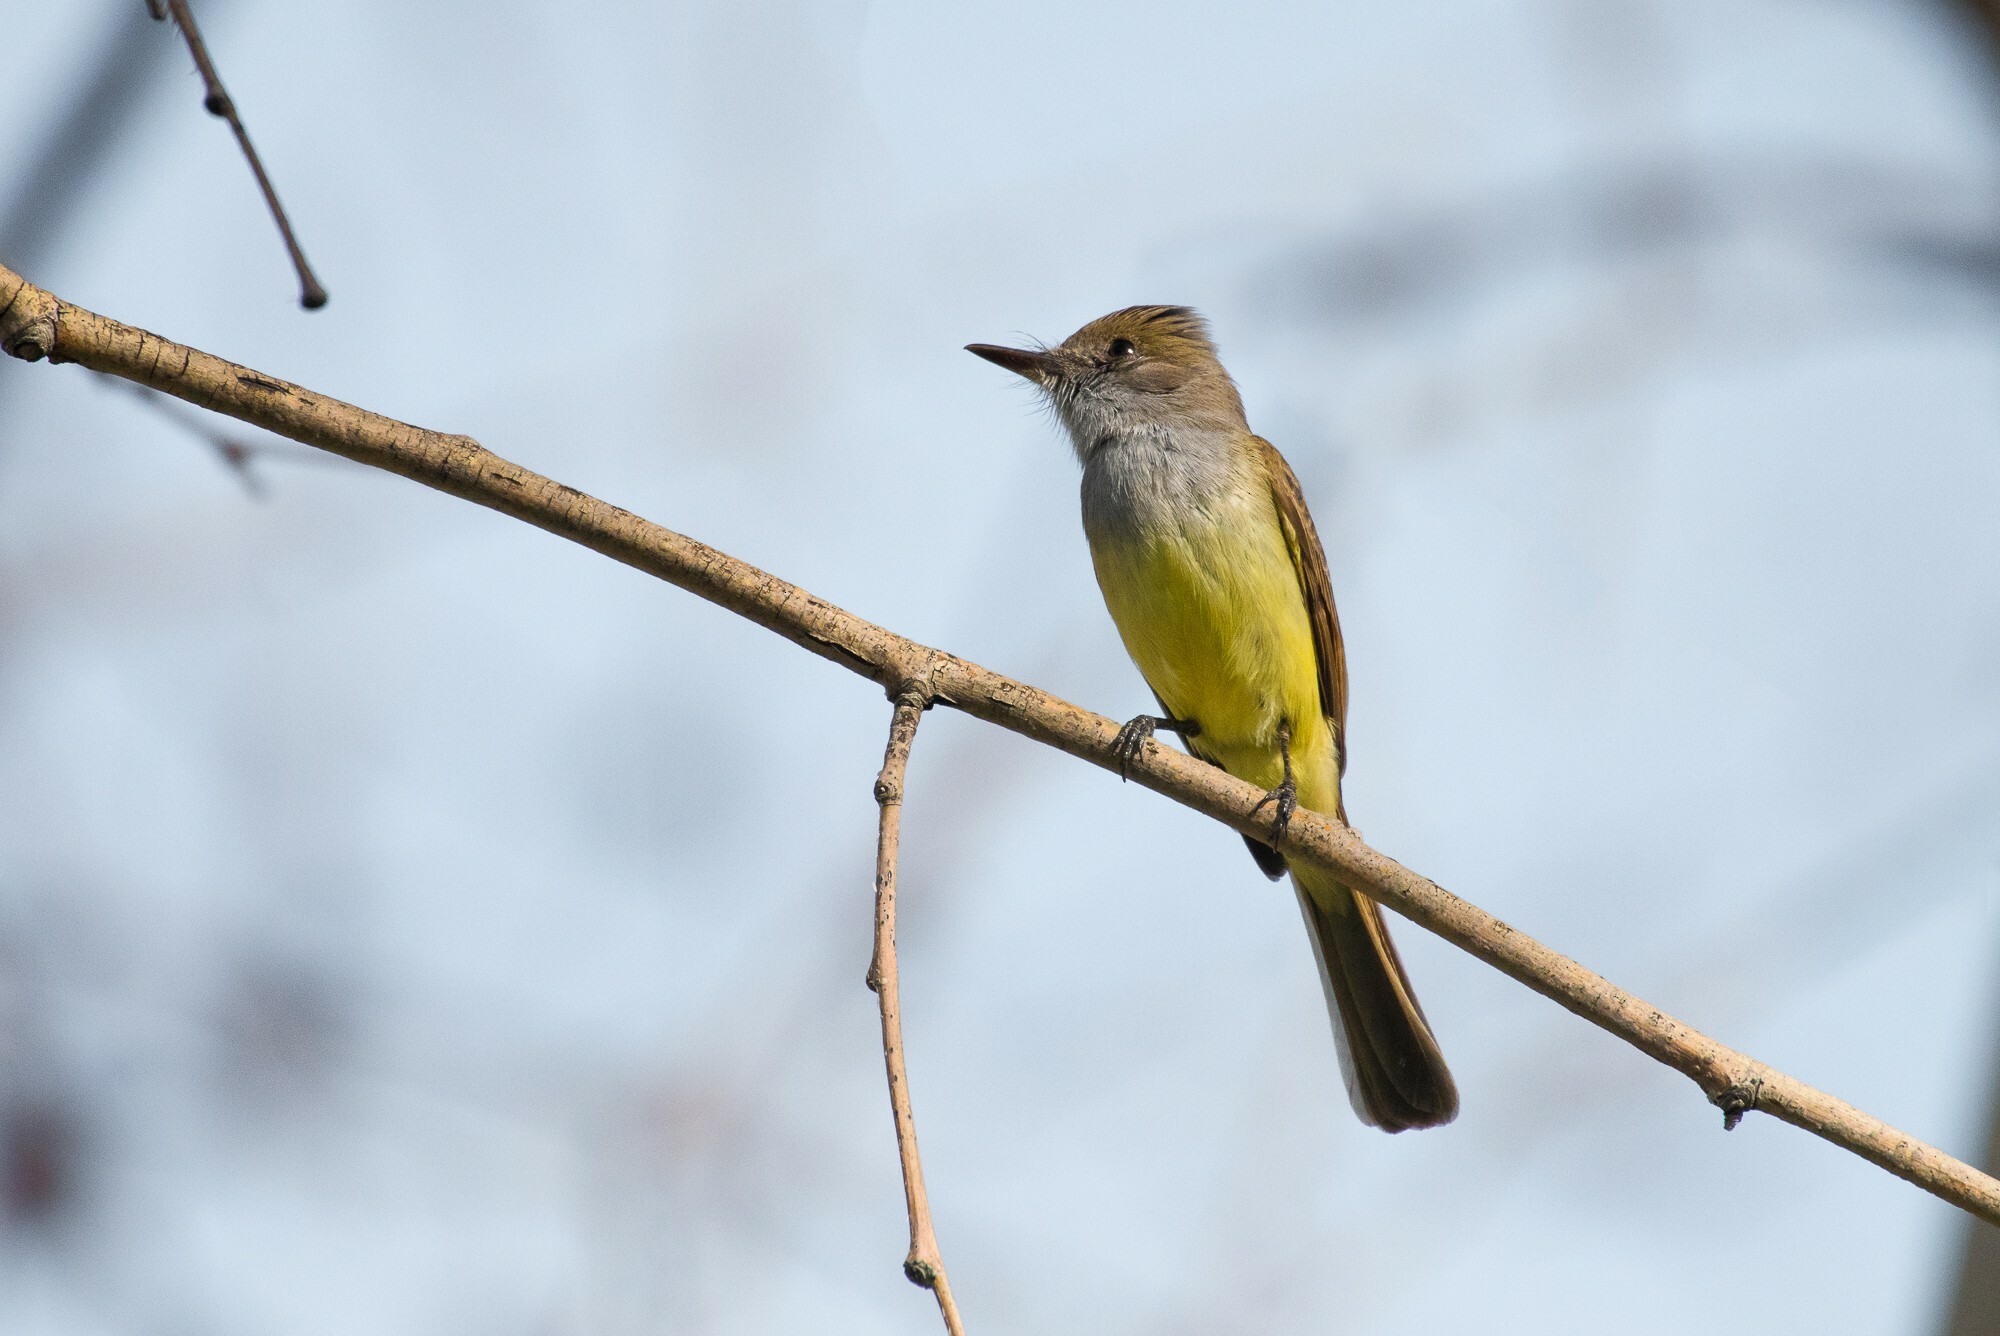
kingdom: Animalia
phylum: Chordata
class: Aves
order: Passeriformes
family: Tyrannidae
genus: Myiarchus
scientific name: Myiarchus tuberculifer
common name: Dusky-capped flycatcher
